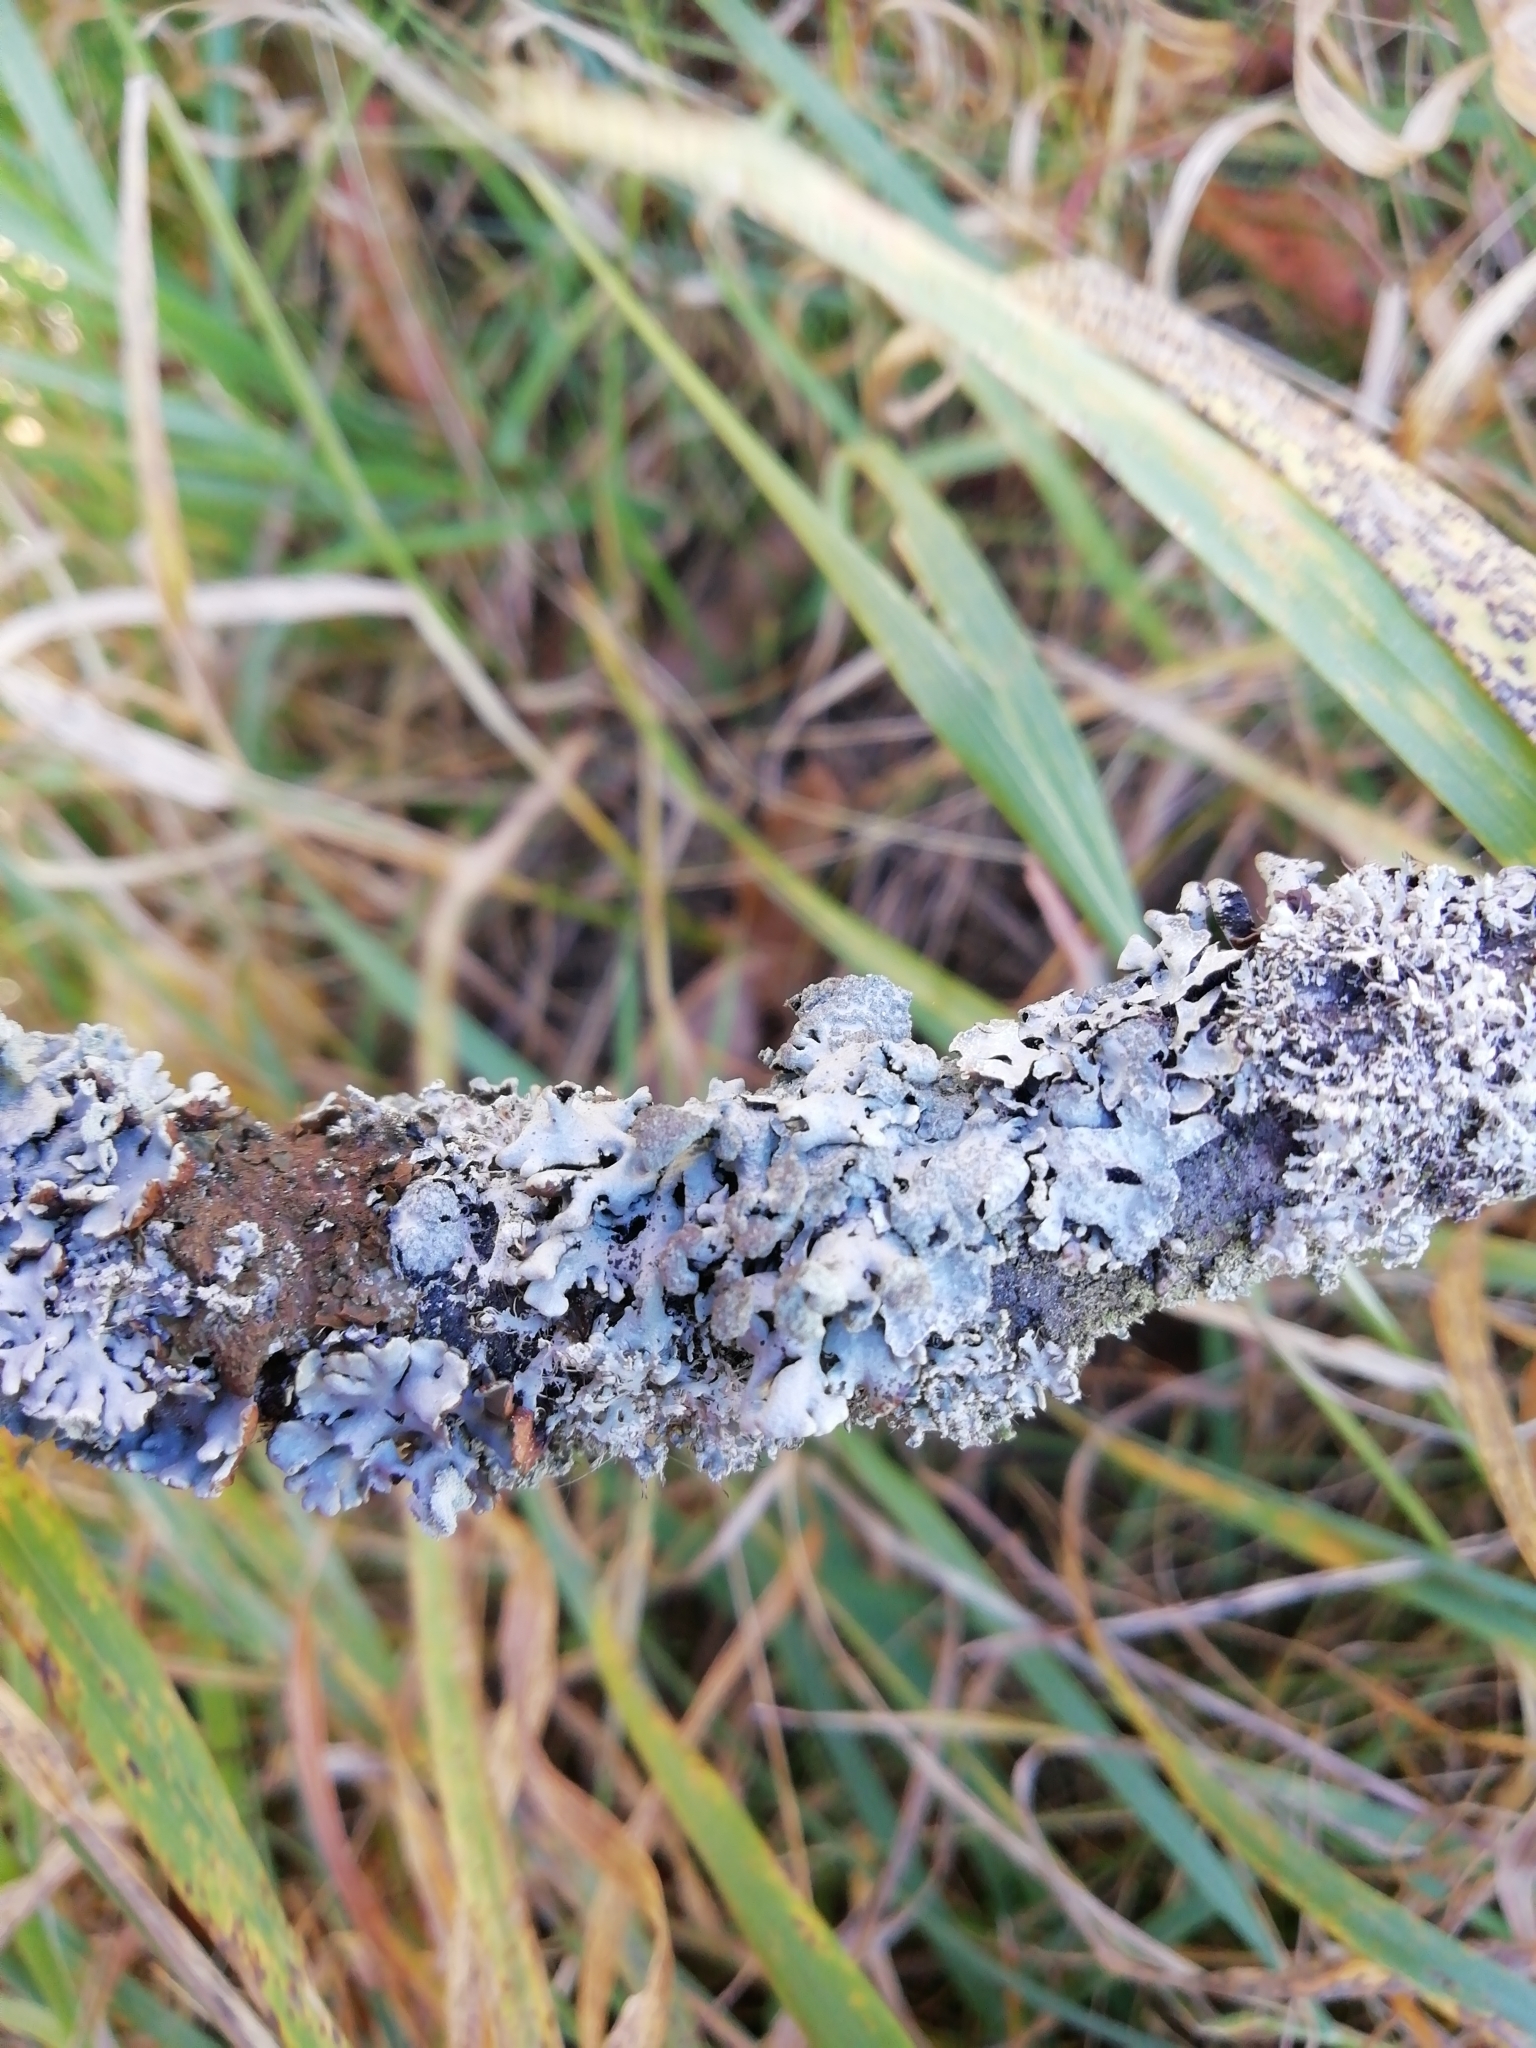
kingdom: Fungi
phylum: Ascomycota
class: Lecanoromycetes
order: Lecanorales
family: Parmeliaceae
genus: Hypogymnia
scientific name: Hypogymnia physodes
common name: Dark crottle
